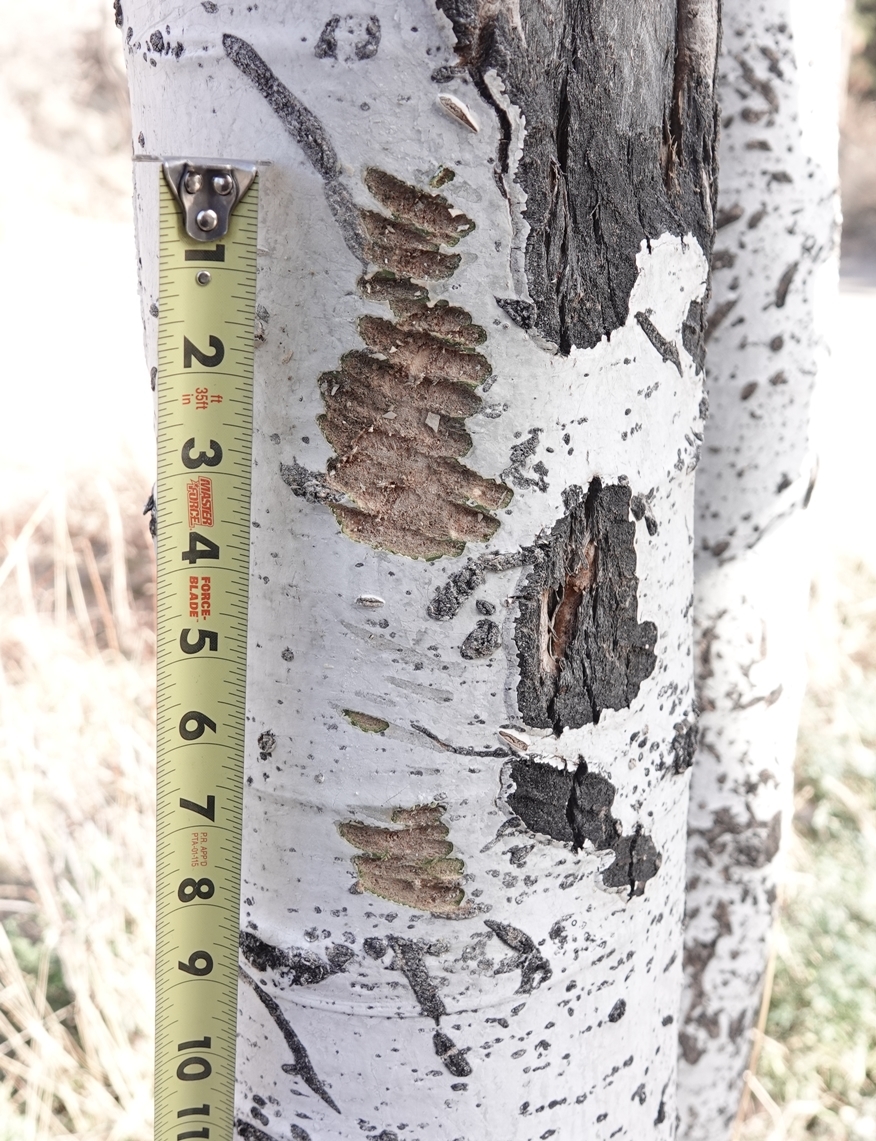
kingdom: Animalia
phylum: Chordata
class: Mammalia
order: Artiodactyla
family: Cervidae
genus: Alces
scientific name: Alces alces
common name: Moose
